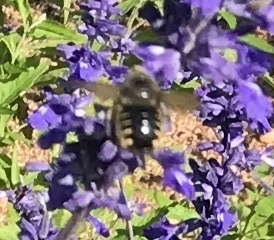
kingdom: Animalia
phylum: Arthropoda
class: Insecta
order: Hymenoptera
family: Apidae
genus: Xylocopa
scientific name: Xylocopa tabaniformis
